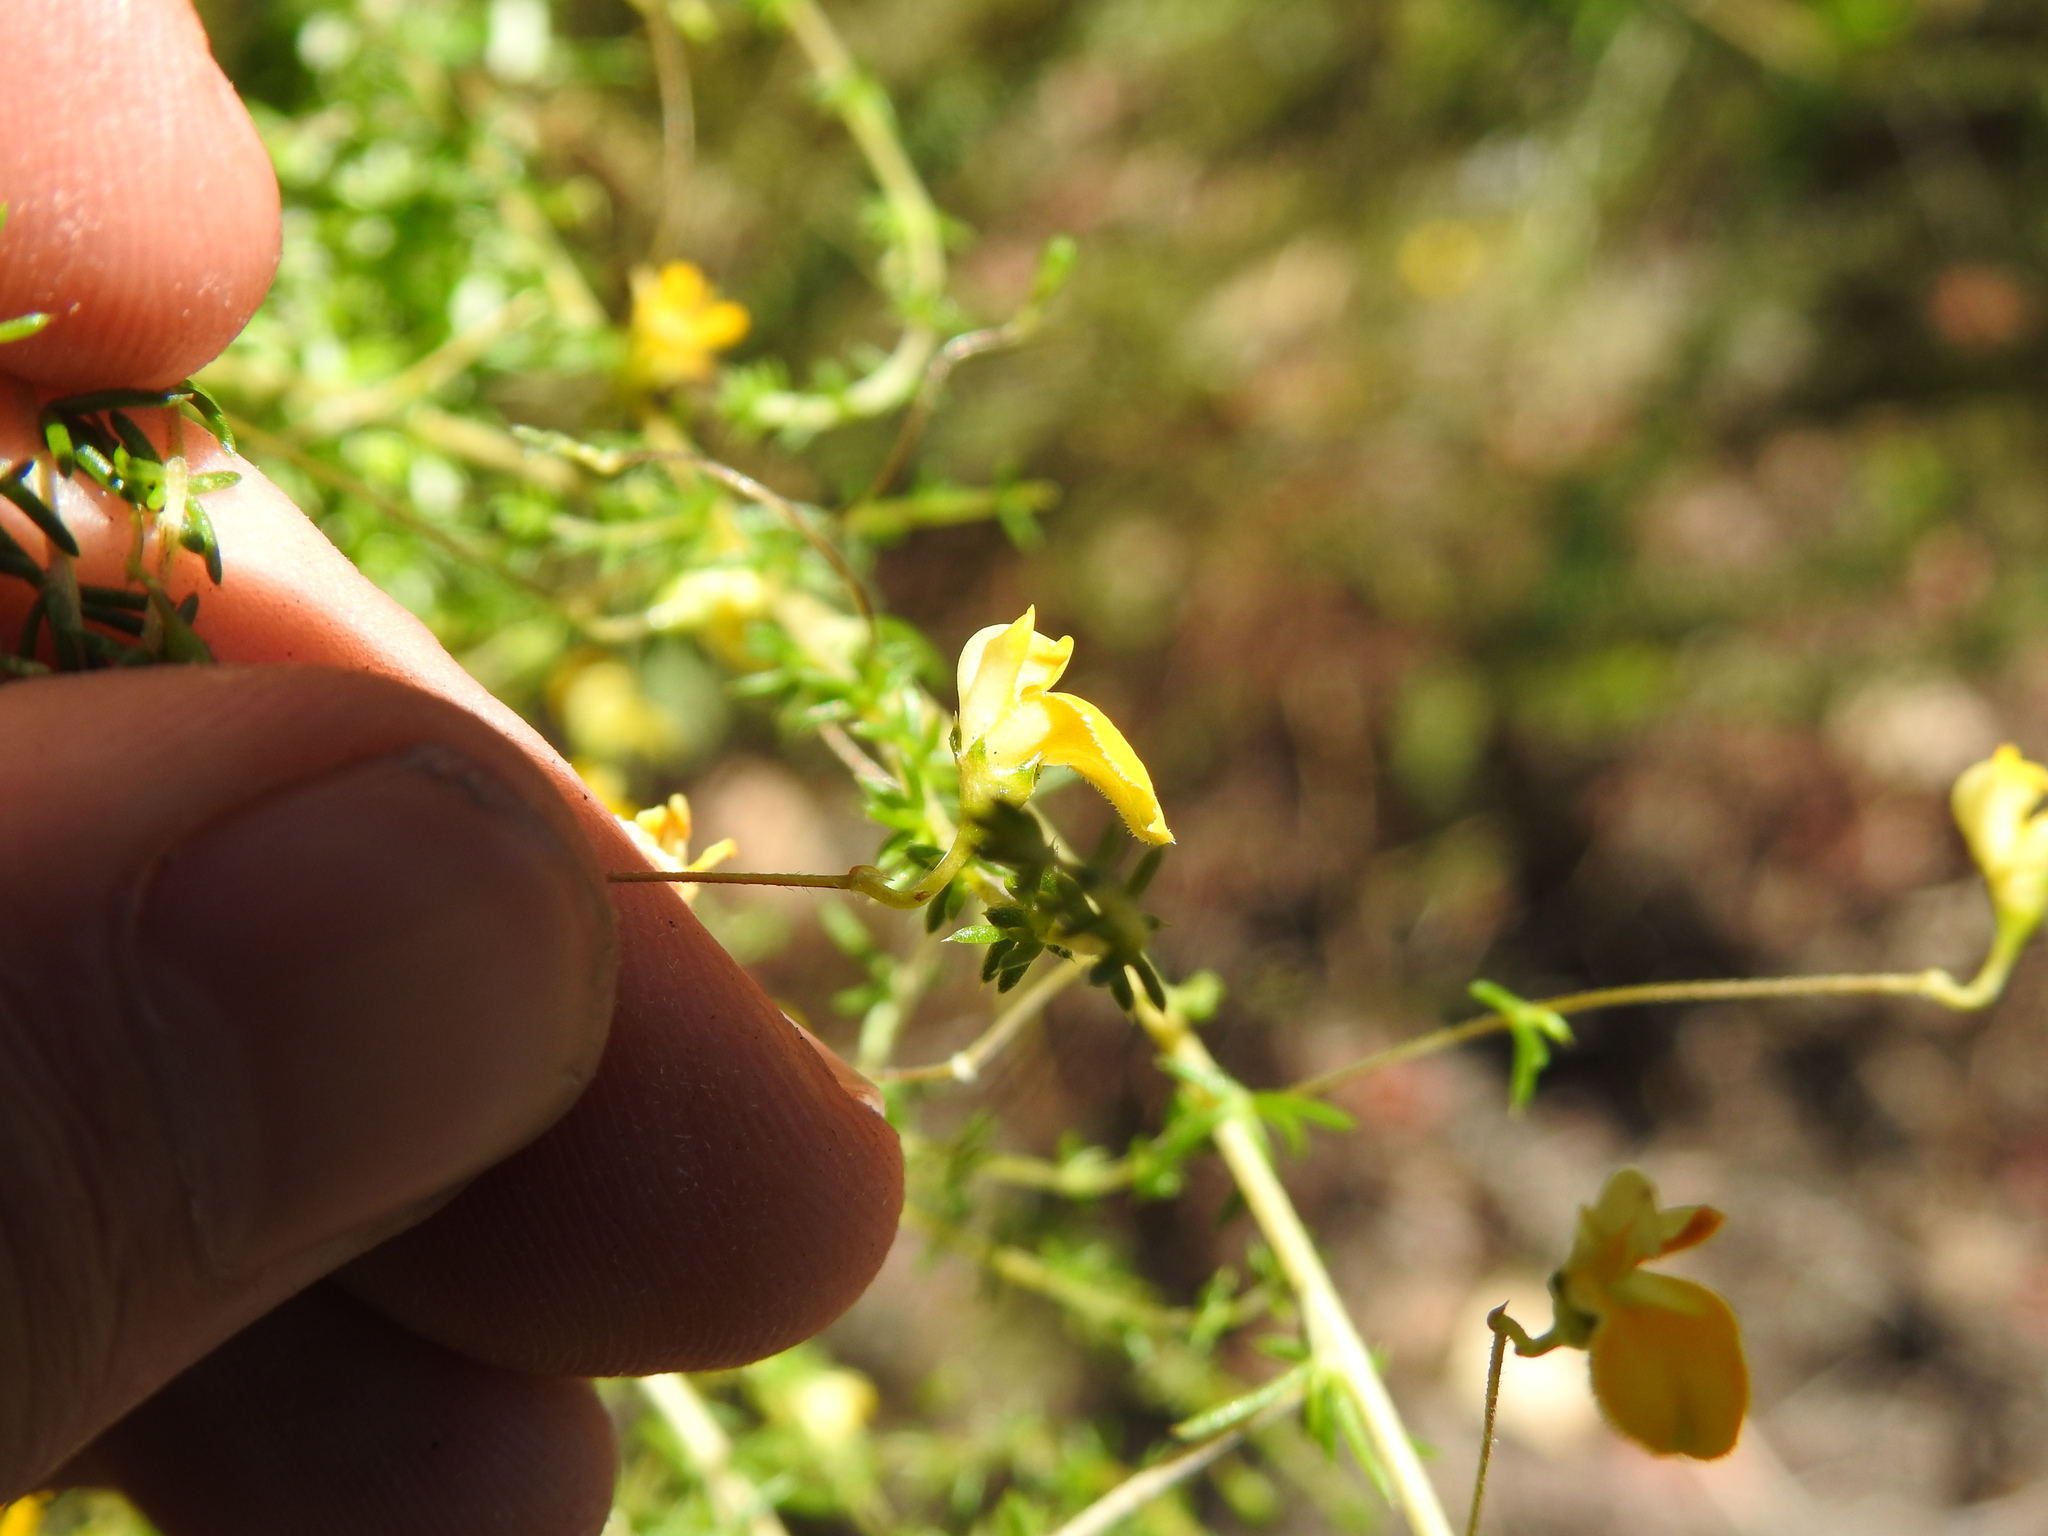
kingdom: Plantae
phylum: Tracheophyta
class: Magnoliopsida
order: Fabales
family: Fabaceae
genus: Aspalathus
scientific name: Aspalathus serpens
